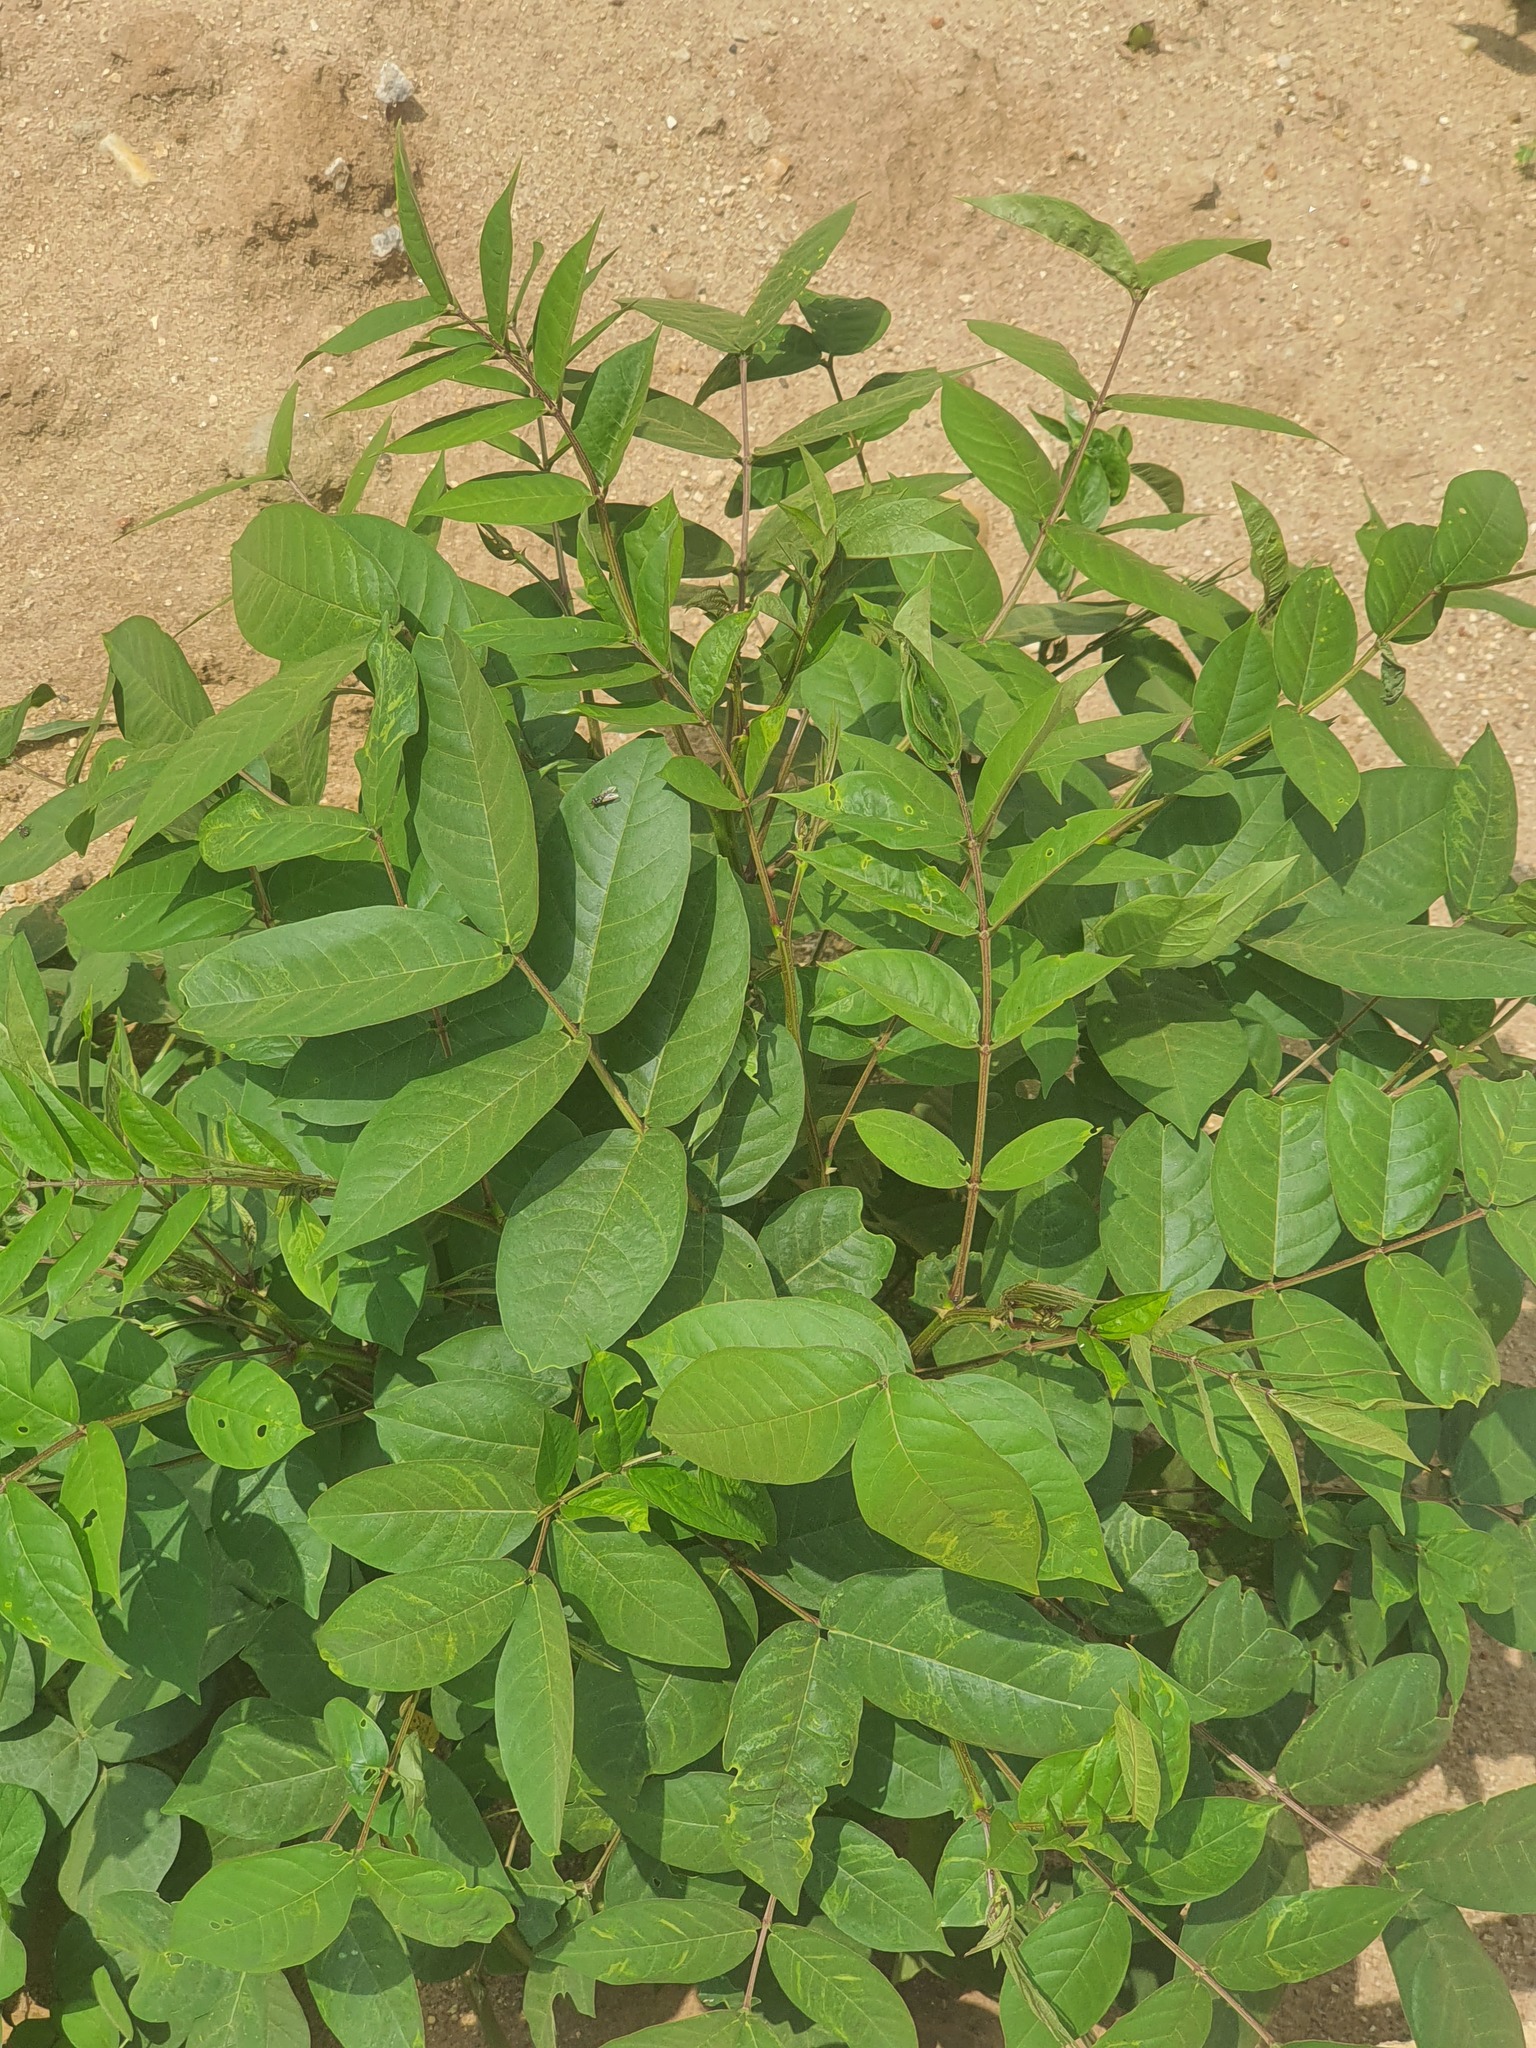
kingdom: Plantae
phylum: Tracheophyta
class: Magnoliopsida
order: Fabales
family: Fabaceae
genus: Senna
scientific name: Senna occidentalis
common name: Septicweed
